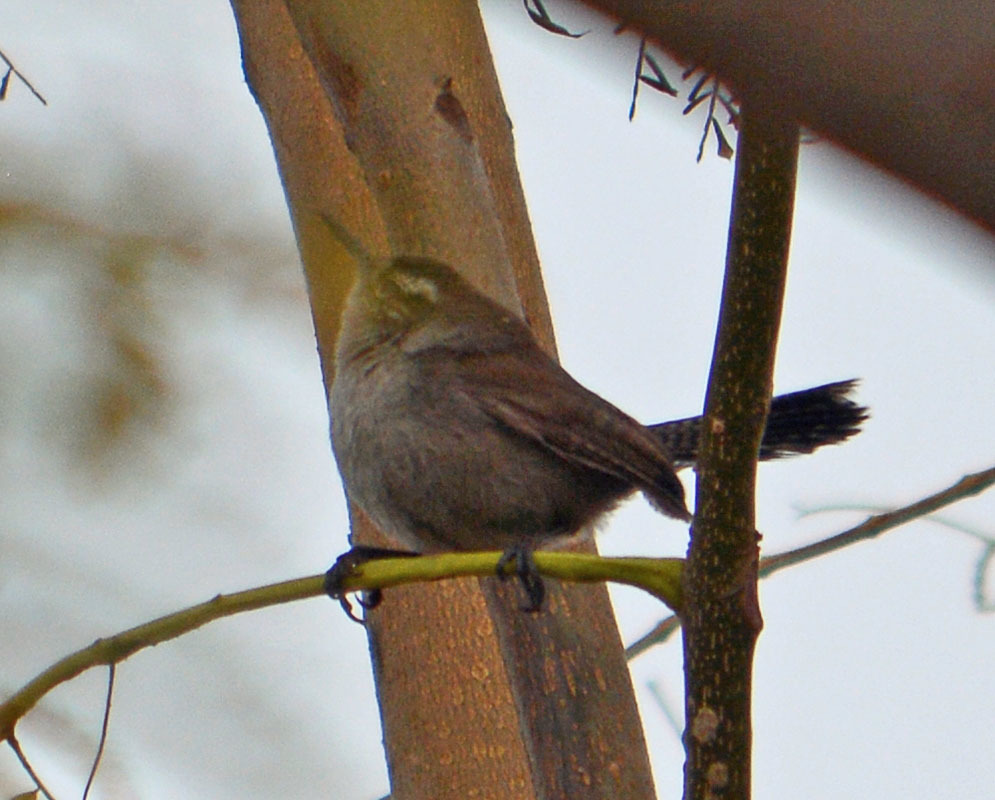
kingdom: Animalia
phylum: Chordata
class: Aves
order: Passeriformes
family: Troglodytidae
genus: Thryomanes
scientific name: Thryomanes bewickii
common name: Bewick's wren
